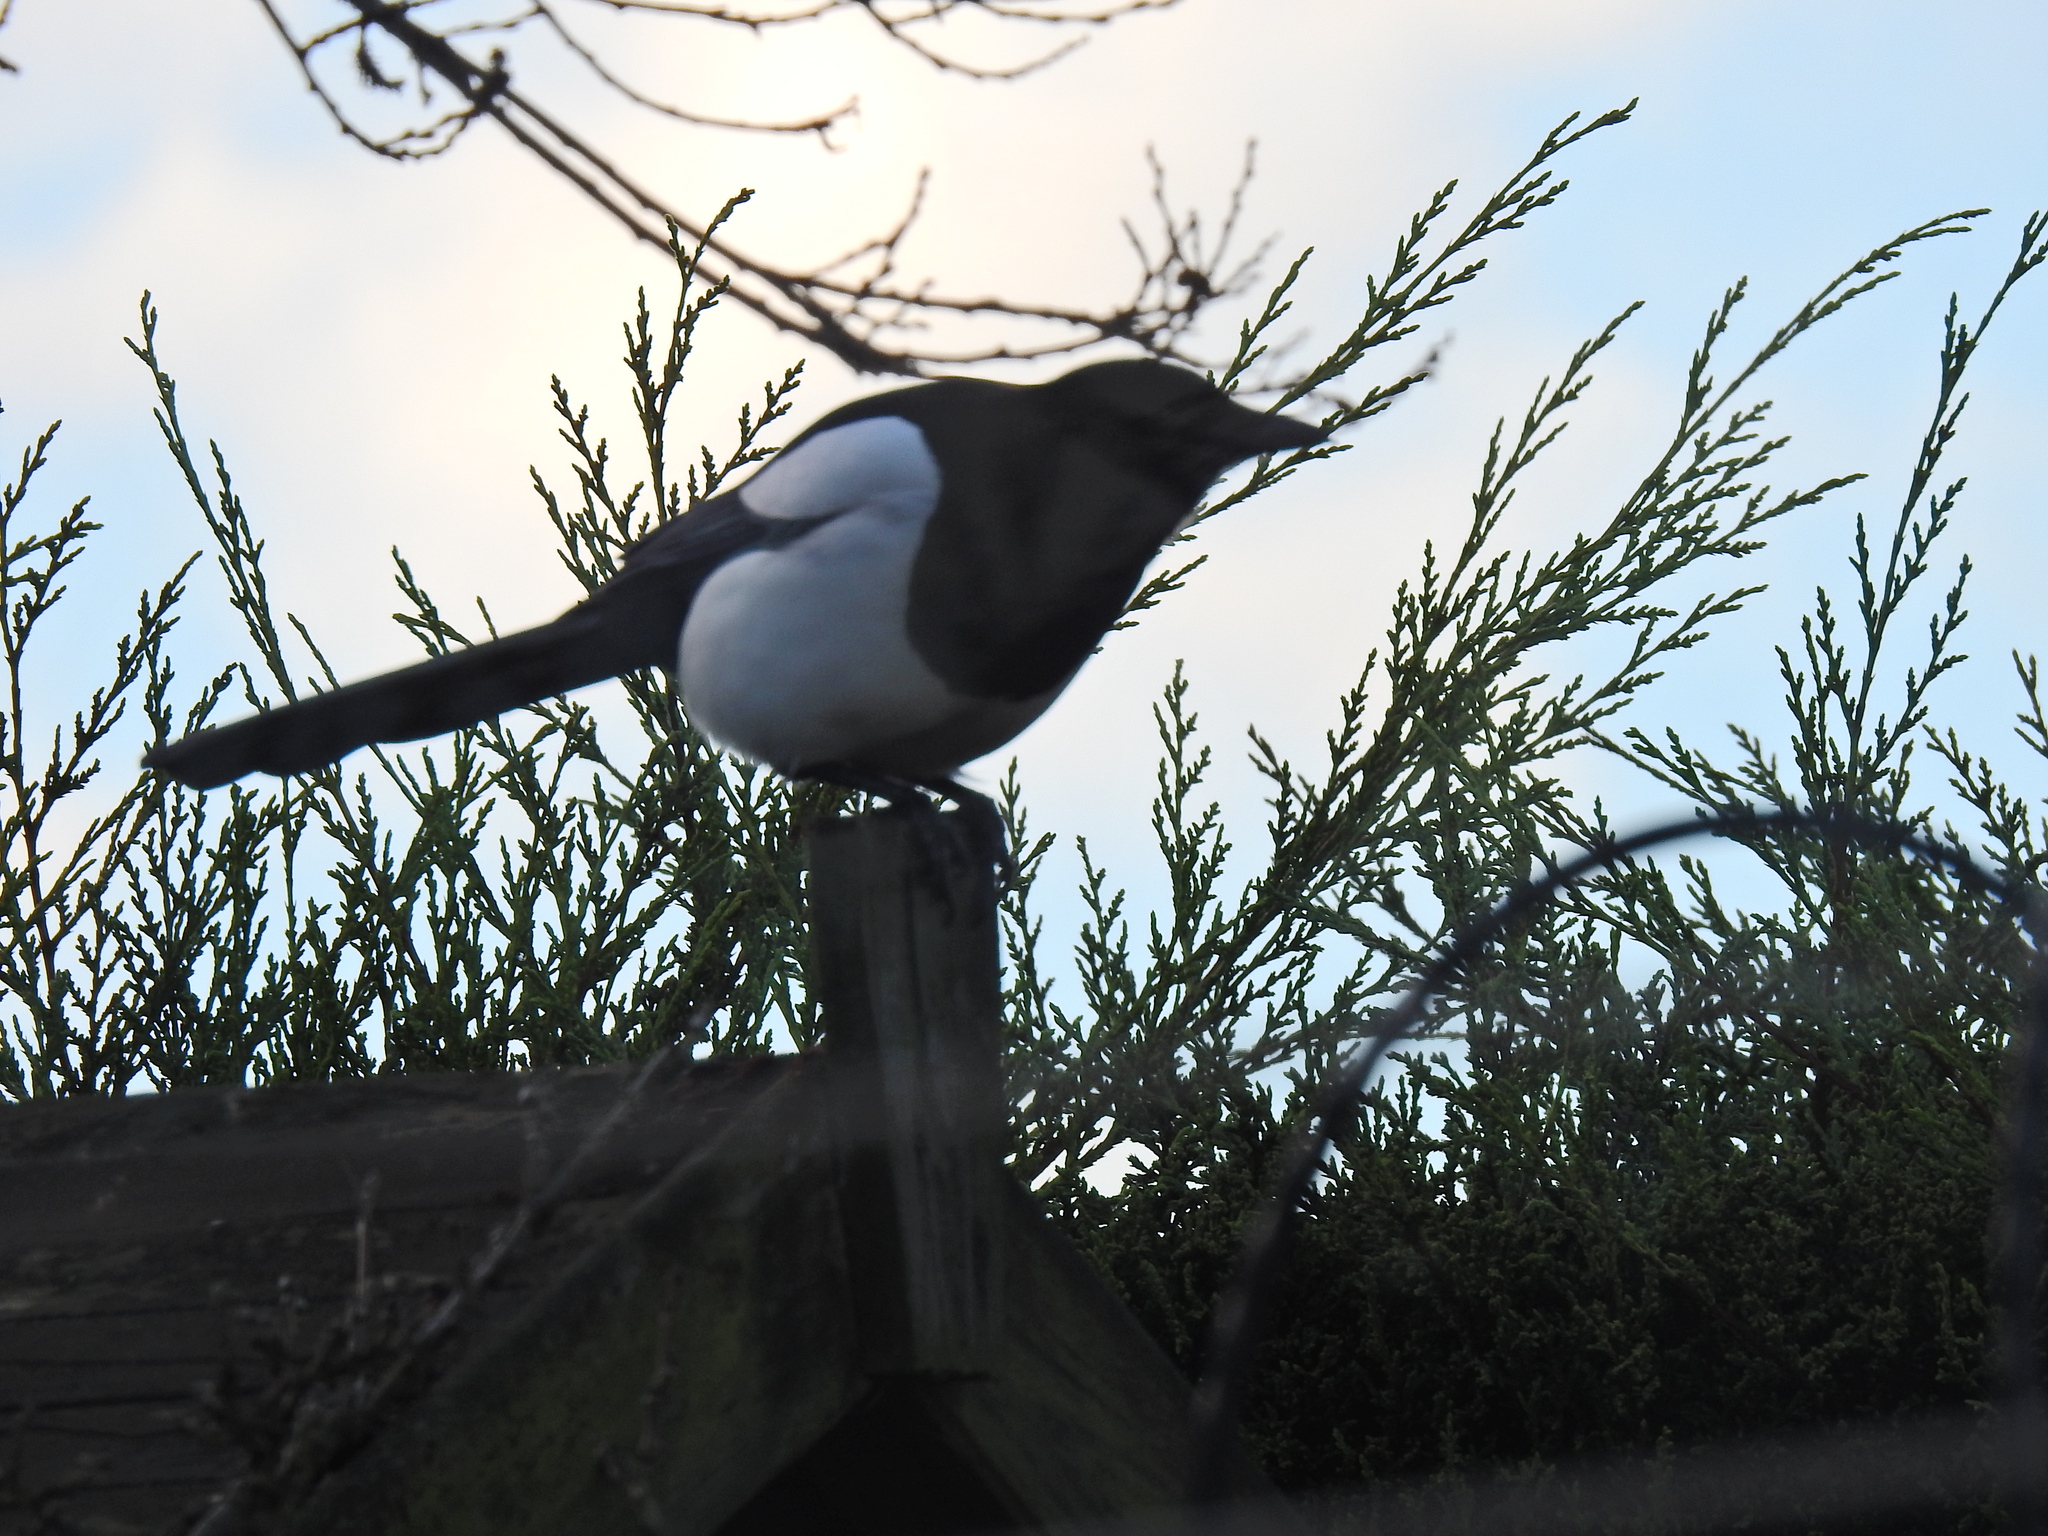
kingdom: Animalia
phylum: Chordata
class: Aves
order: Passeriformes
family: Corvidae
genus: Pica
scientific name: Pica pica
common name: Eurasian magpie
